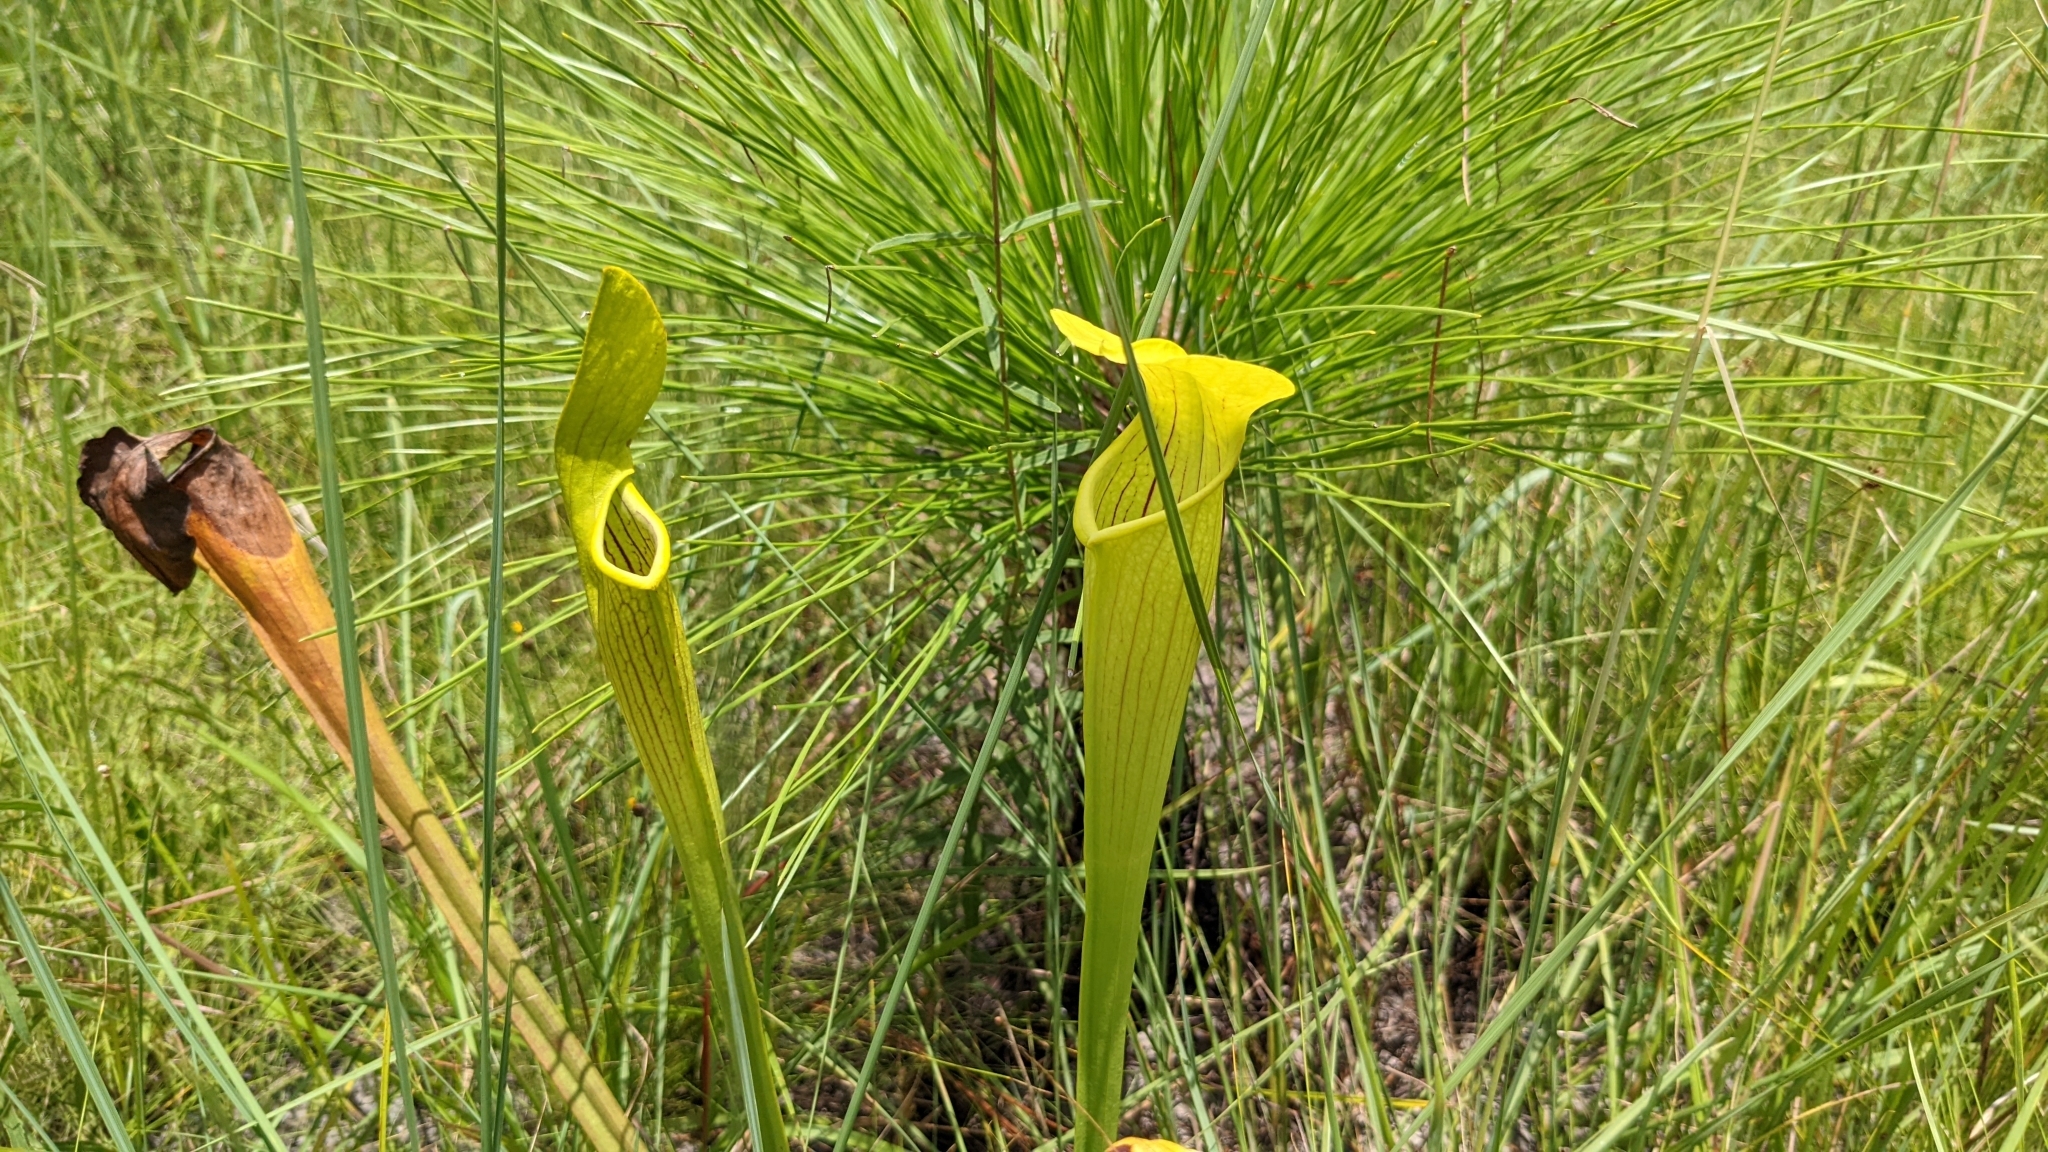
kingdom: Plantae
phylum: Tracheophyta
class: Magnoliopsida
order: Ericales
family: Sarraceniaceae
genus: Sarracenia
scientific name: Sarracenia alata
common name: Yellow trumpets
